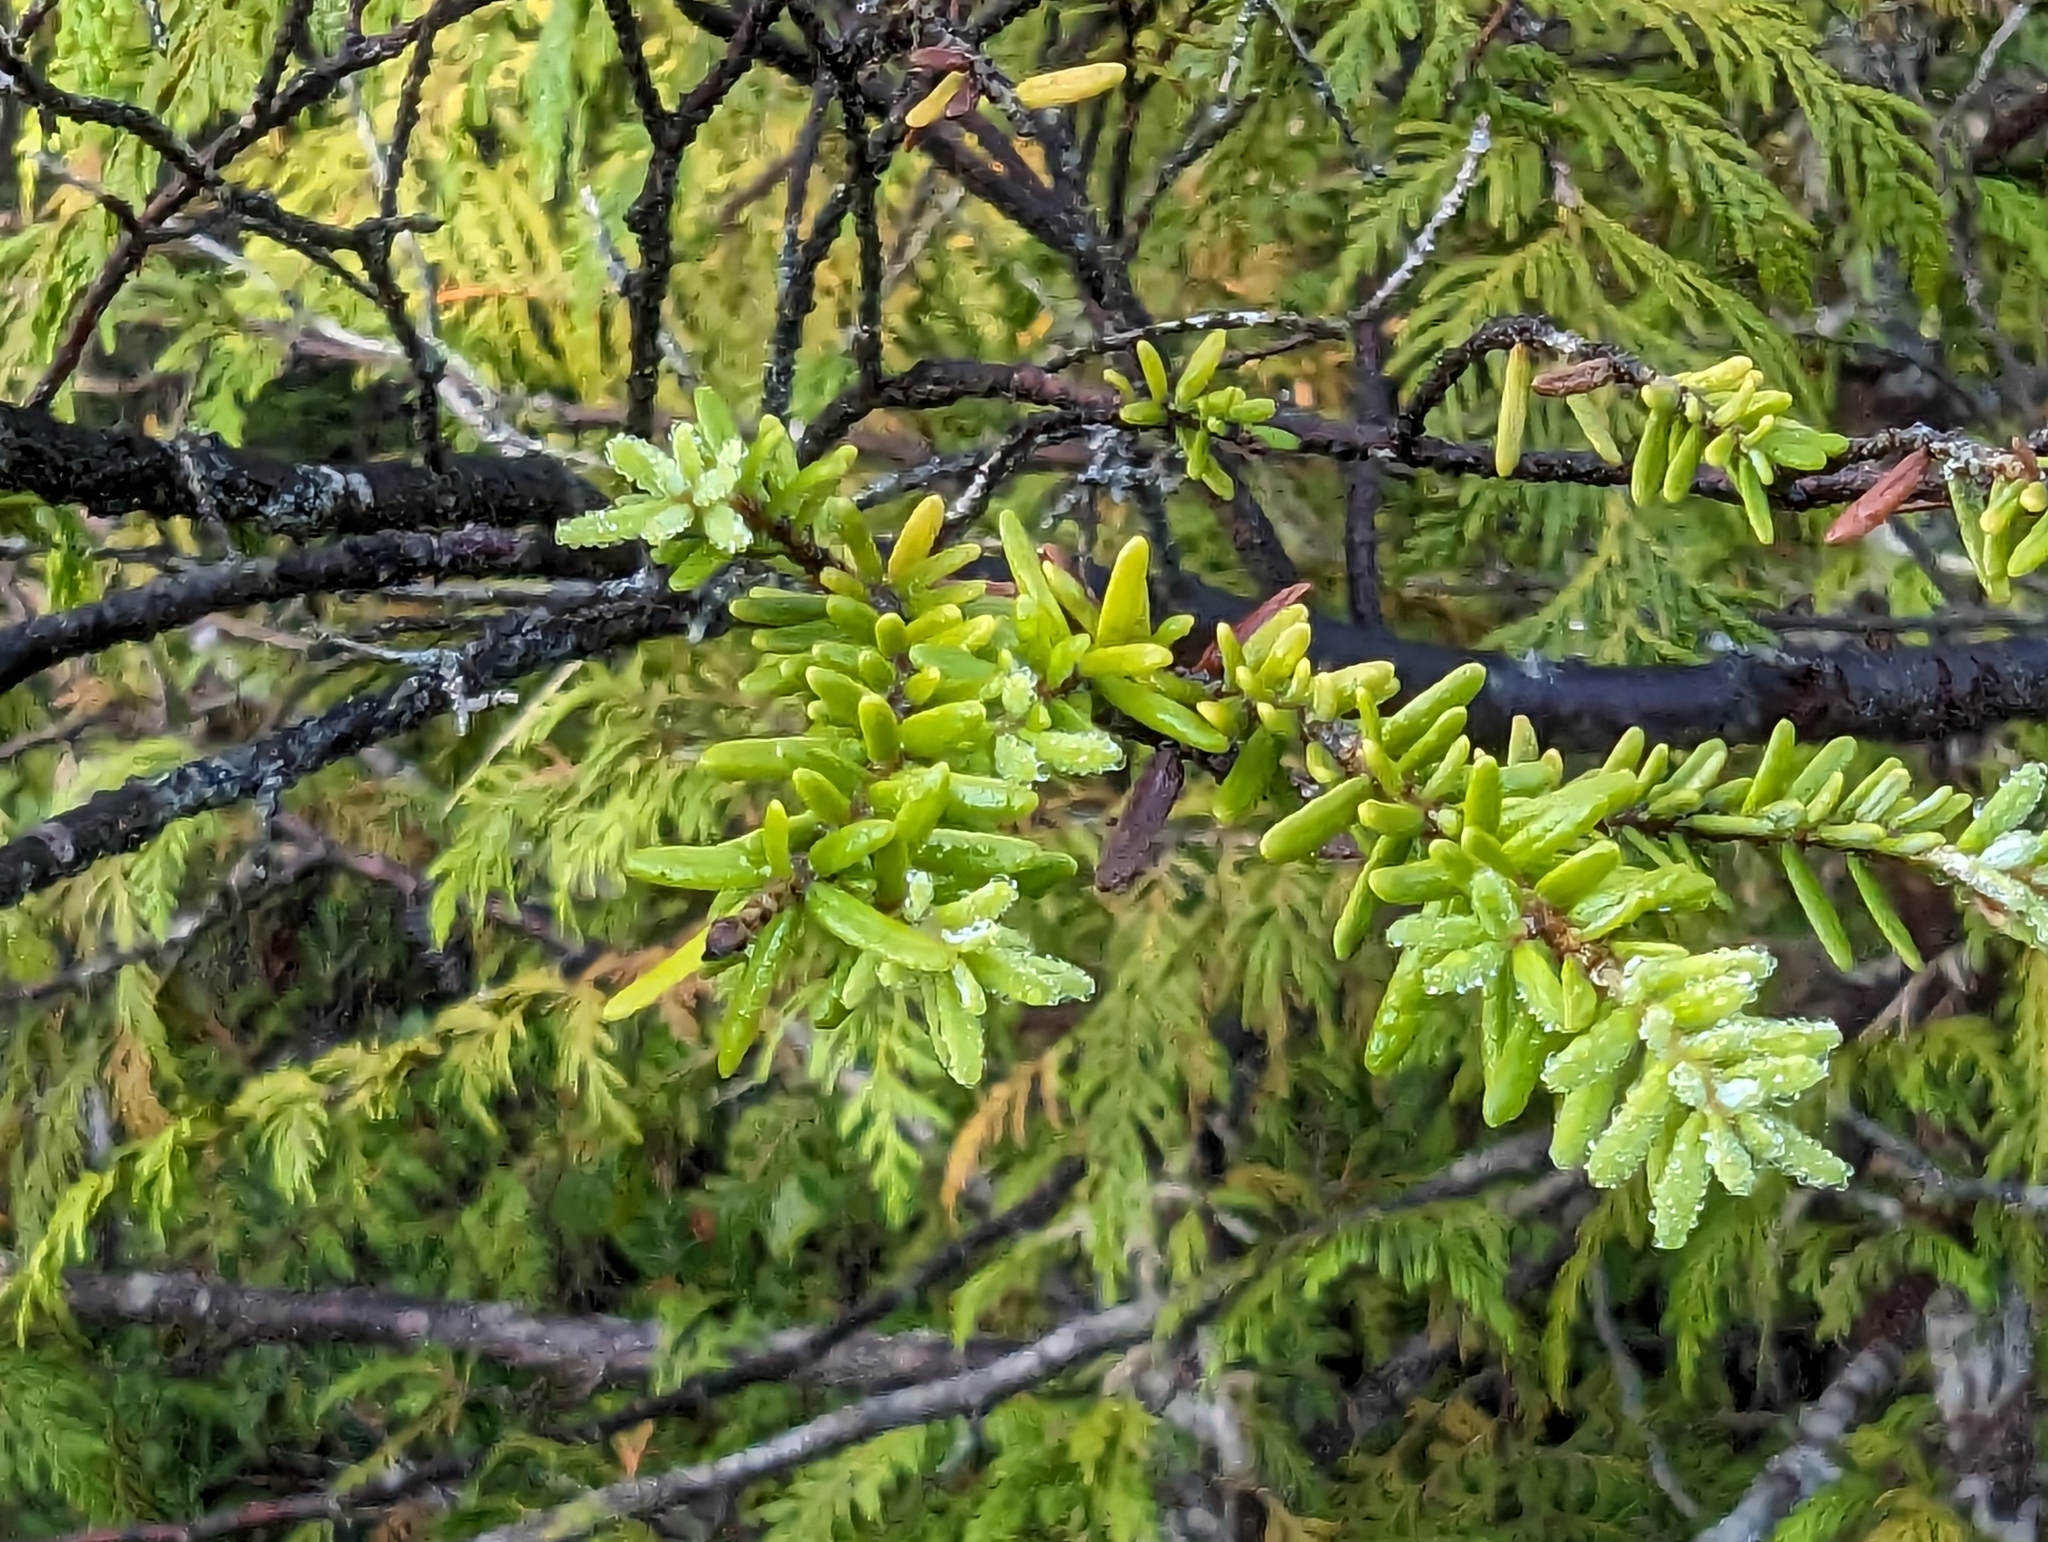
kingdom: Plantae
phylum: Tracheophyta
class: Pinopsida
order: Pinales
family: Pinaceae
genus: Tsuga
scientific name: Tsuga heterophylla
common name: Western hemlock
